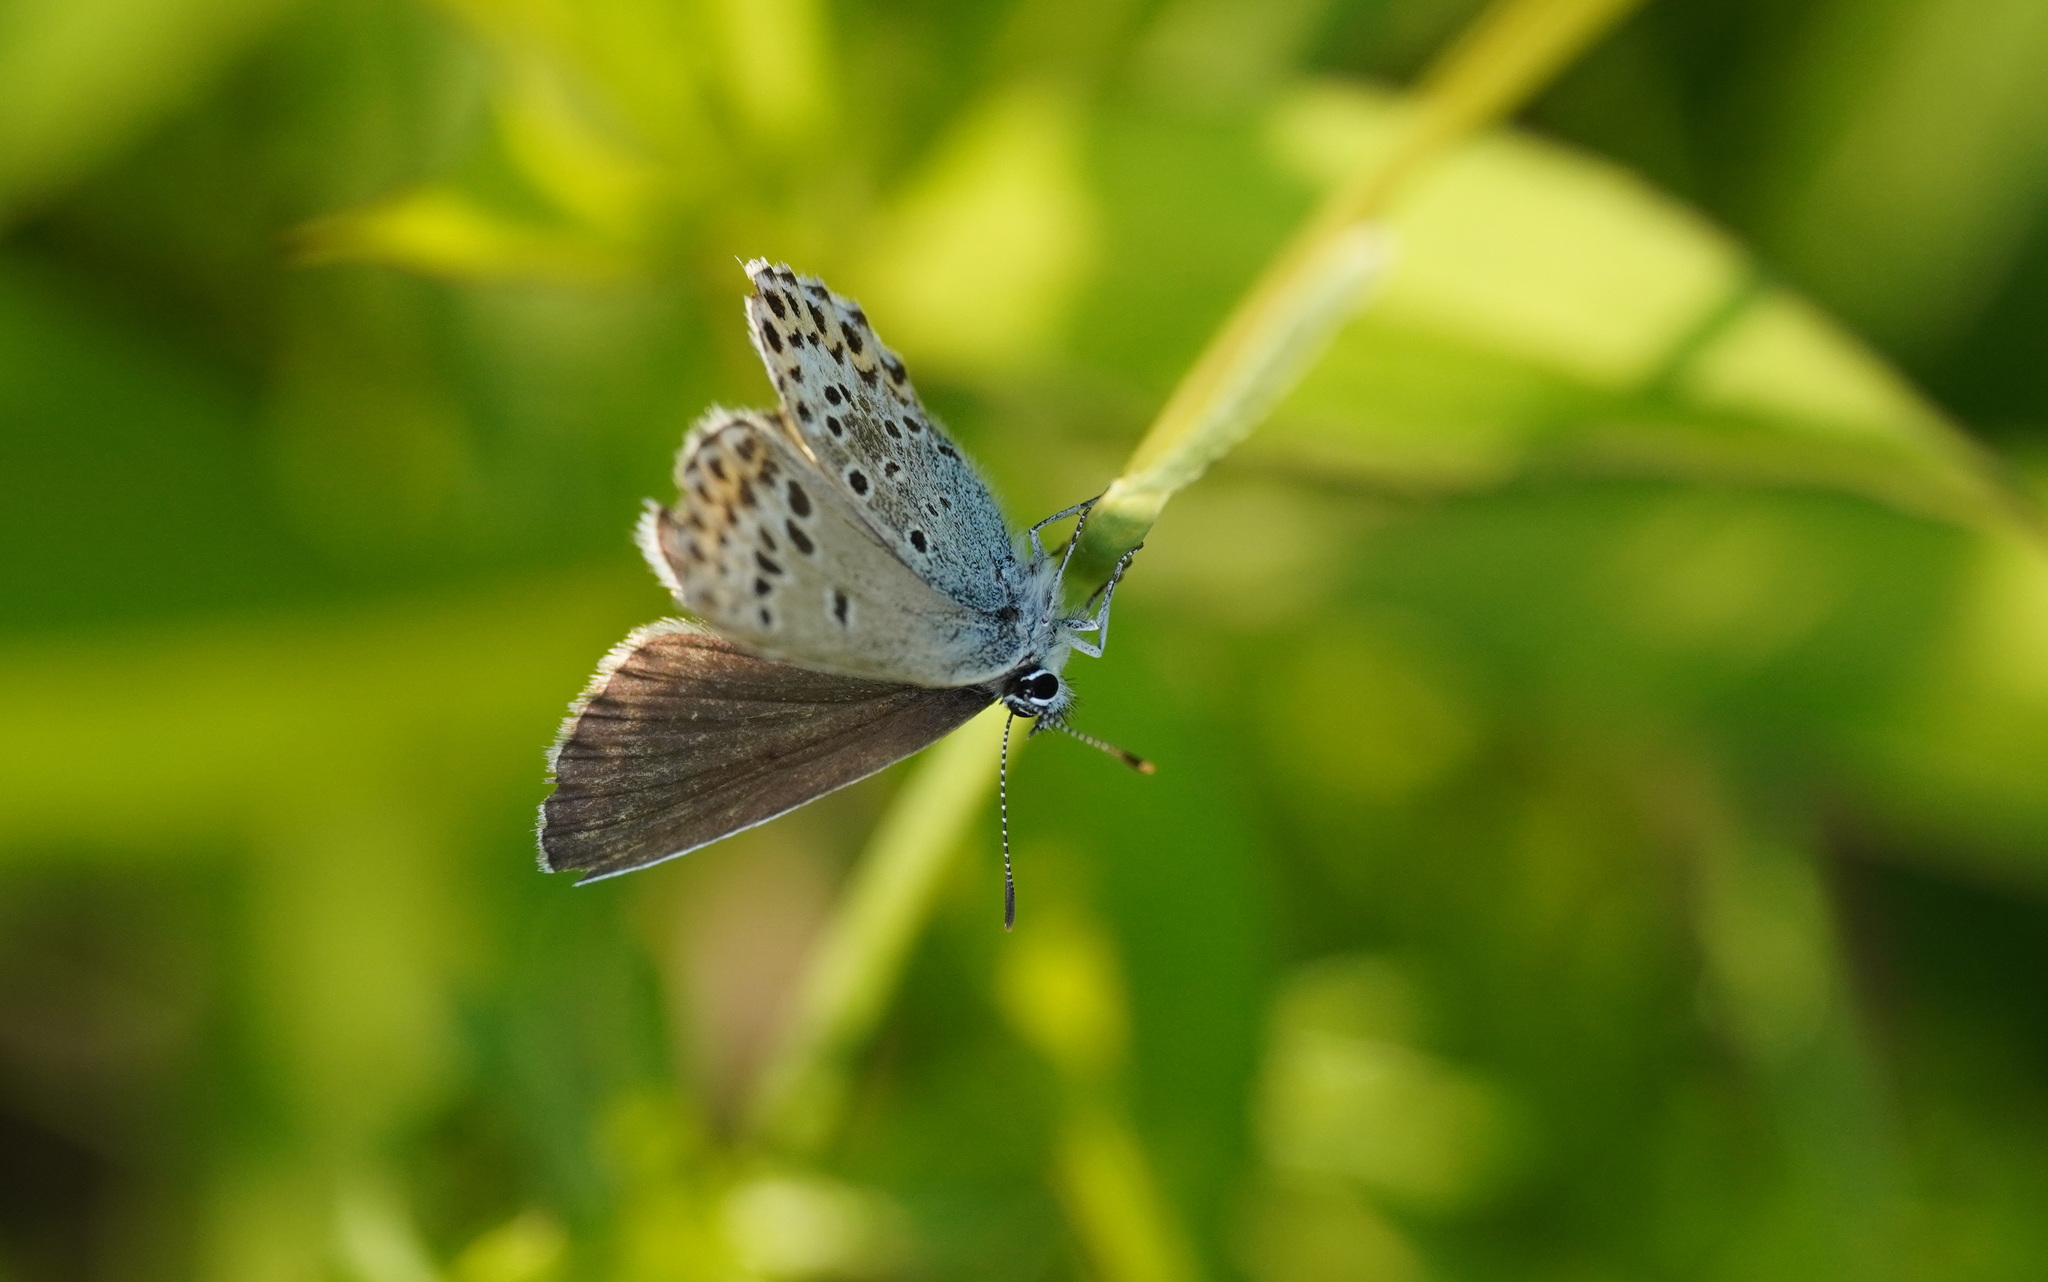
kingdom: Animalia
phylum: Arthropoda
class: Insecta
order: Lepidoptera
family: Lycaenidae
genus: Lycaeides
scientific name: Lycaeides idas
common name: Northern blue
